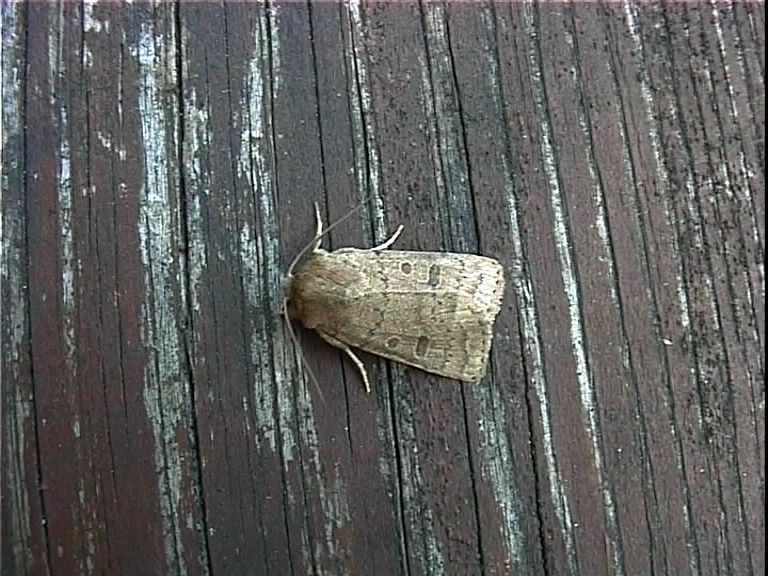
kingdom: Animalia
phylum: Arthropoda
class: Insecta
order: Lepidoptera
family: Noctuidae
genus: Hoplodrina
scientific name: Hoplodrina octogenaria
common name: Uncertain
